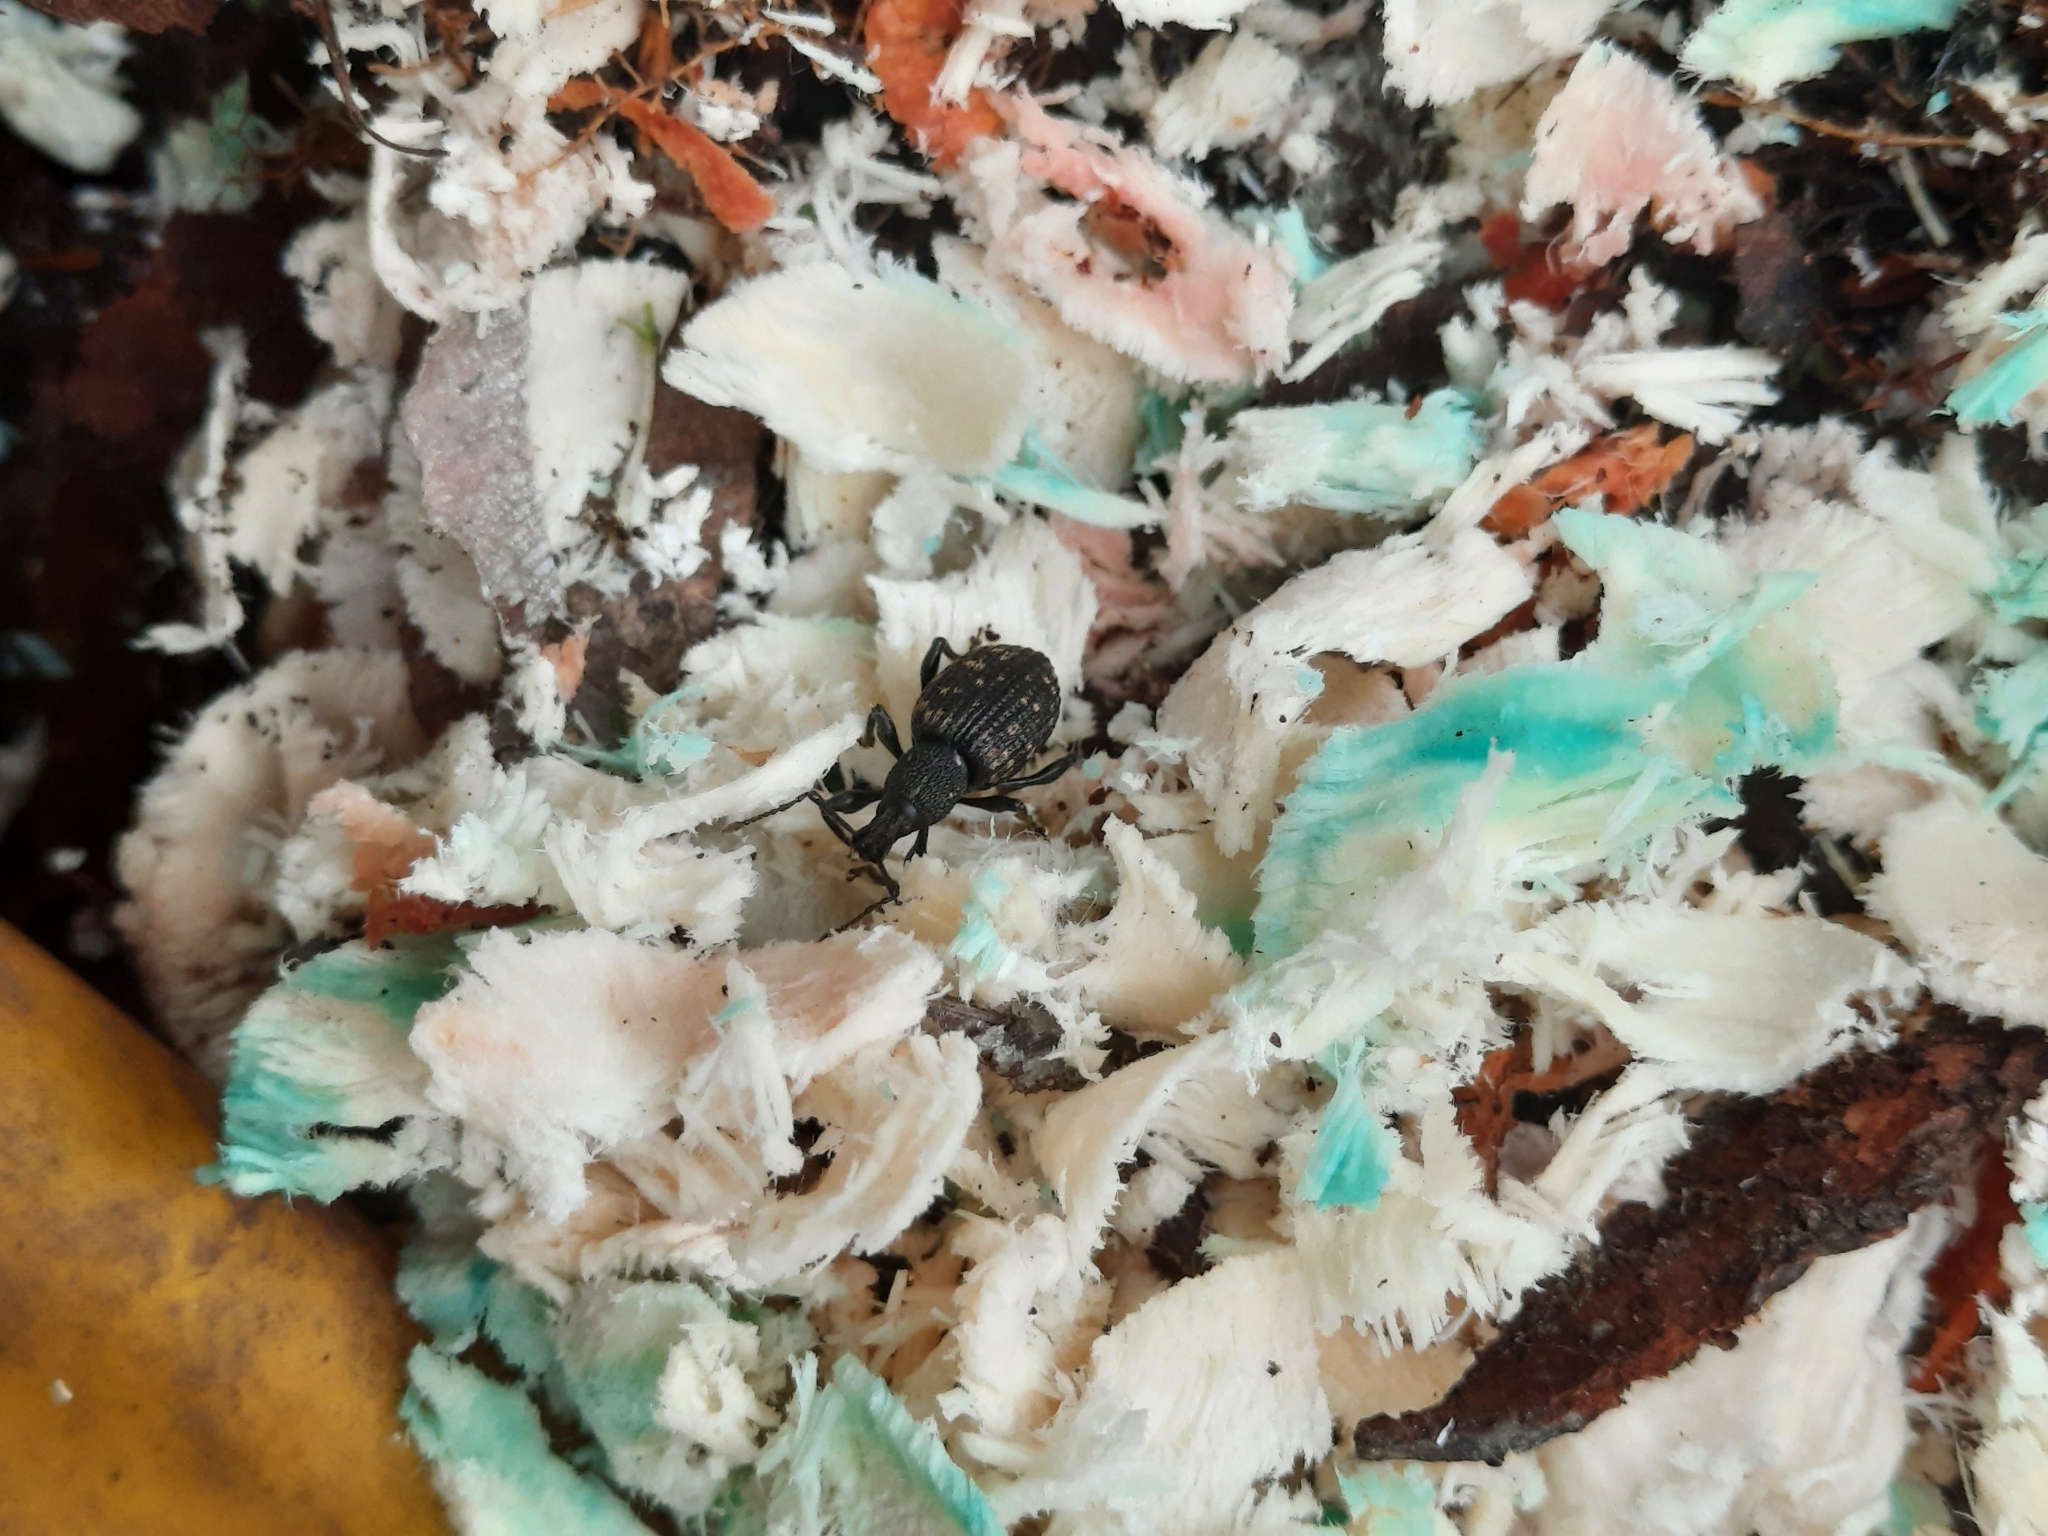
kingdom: Animalia
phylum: Arthropoda
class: Insecta
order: Coleoptera
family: Curculionidae
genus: Otiorhynchus
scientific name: Otiorhynchus sulcatus
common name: Black vine weevil
